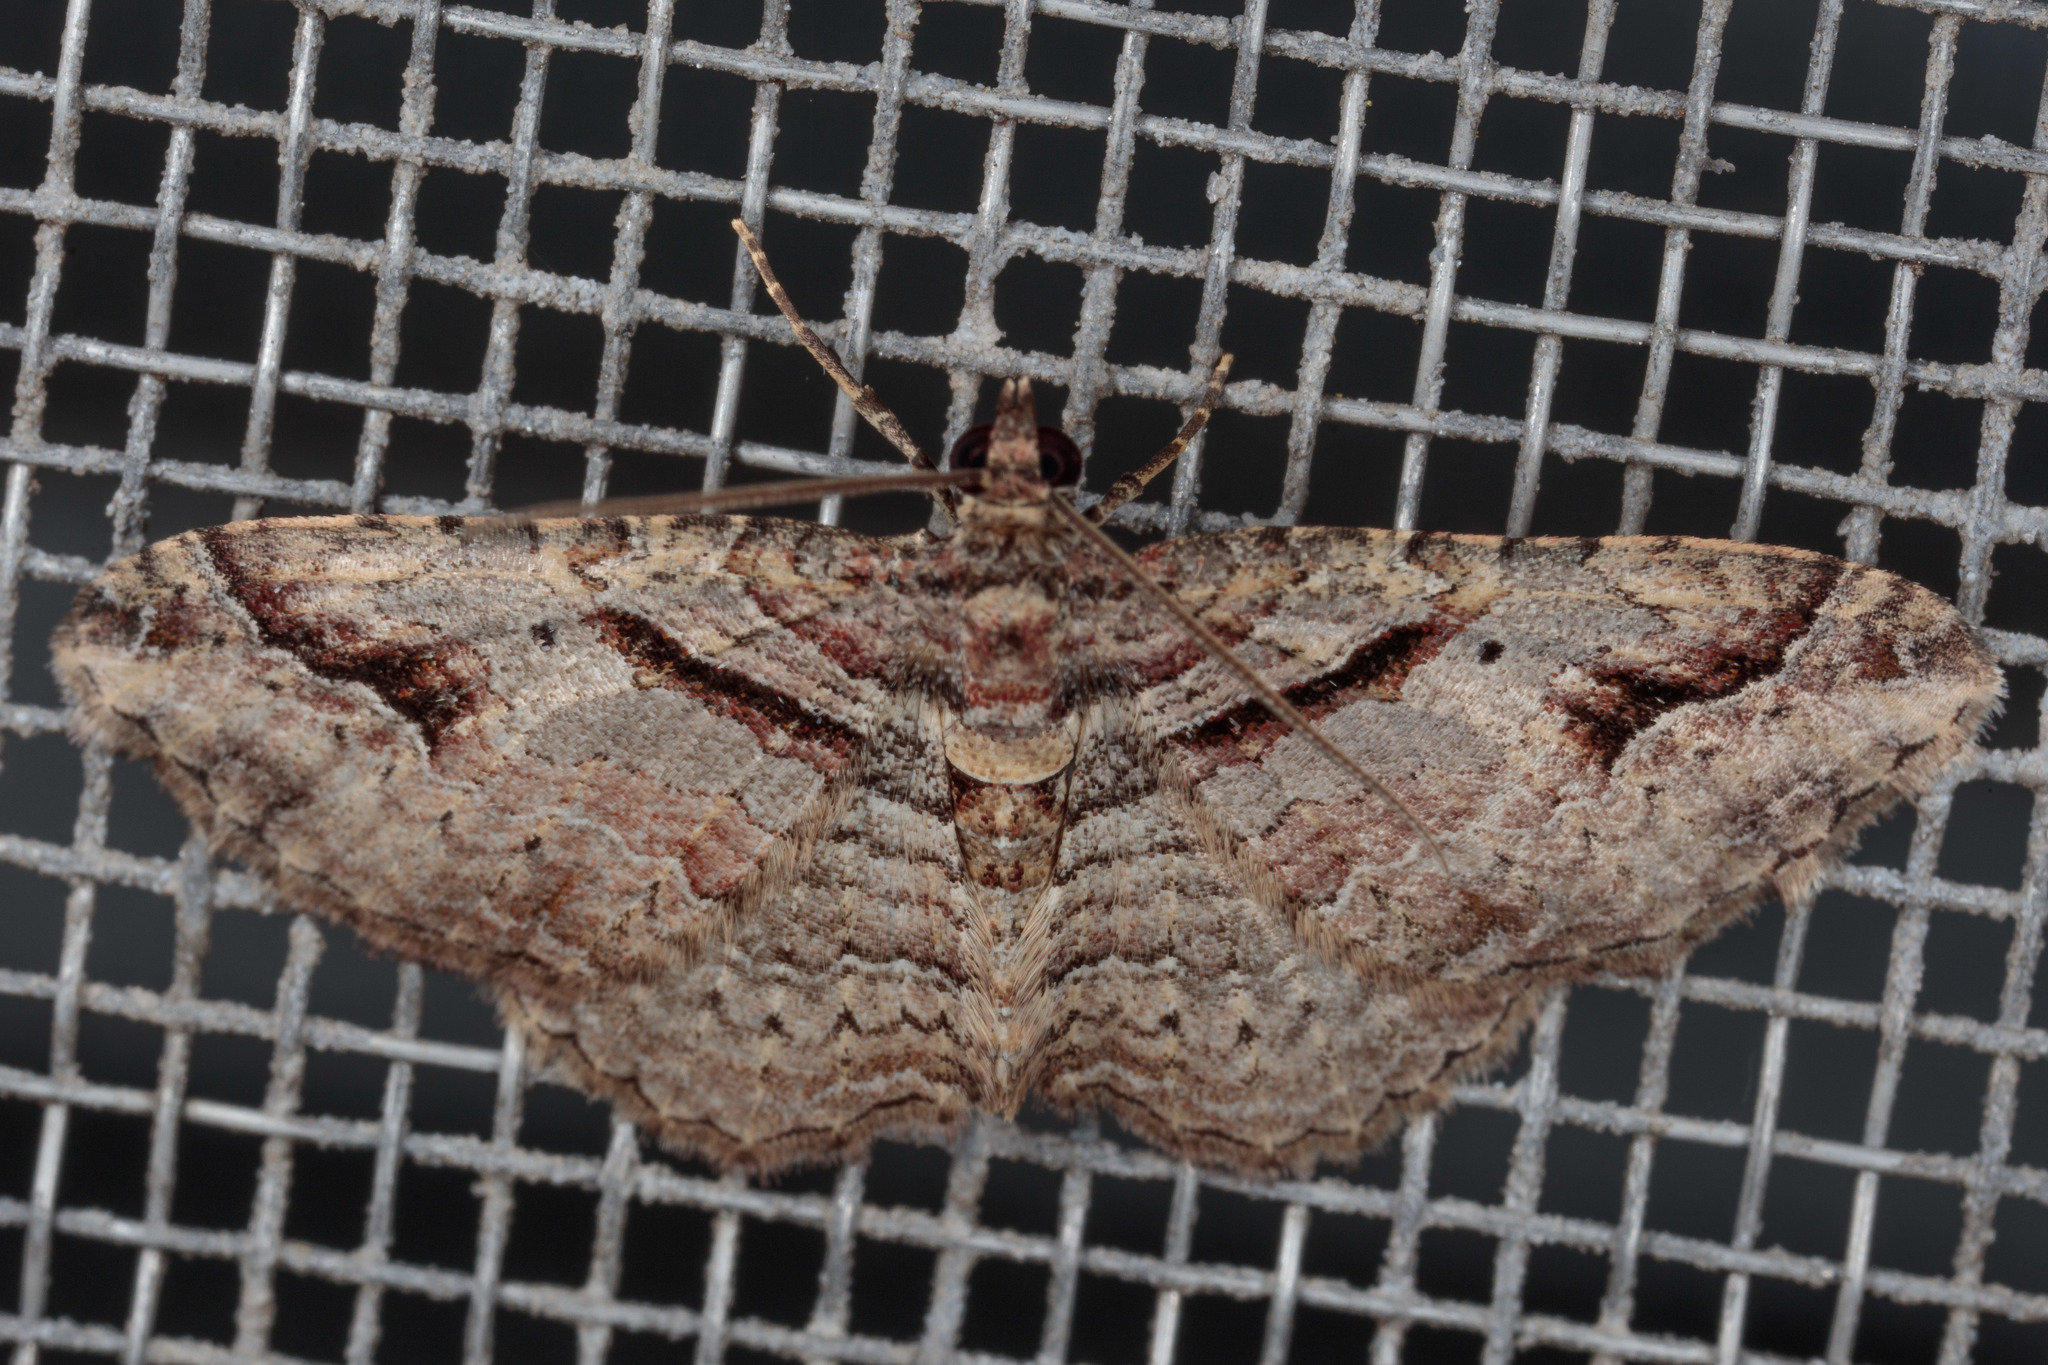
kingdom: Animalia
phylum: Arthropoda
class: Insecta
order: Lepidoptera
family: Geometridae
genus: Costaconvexa
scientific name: Costaconvexa centrostrigaria
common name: Bent-line carpet
